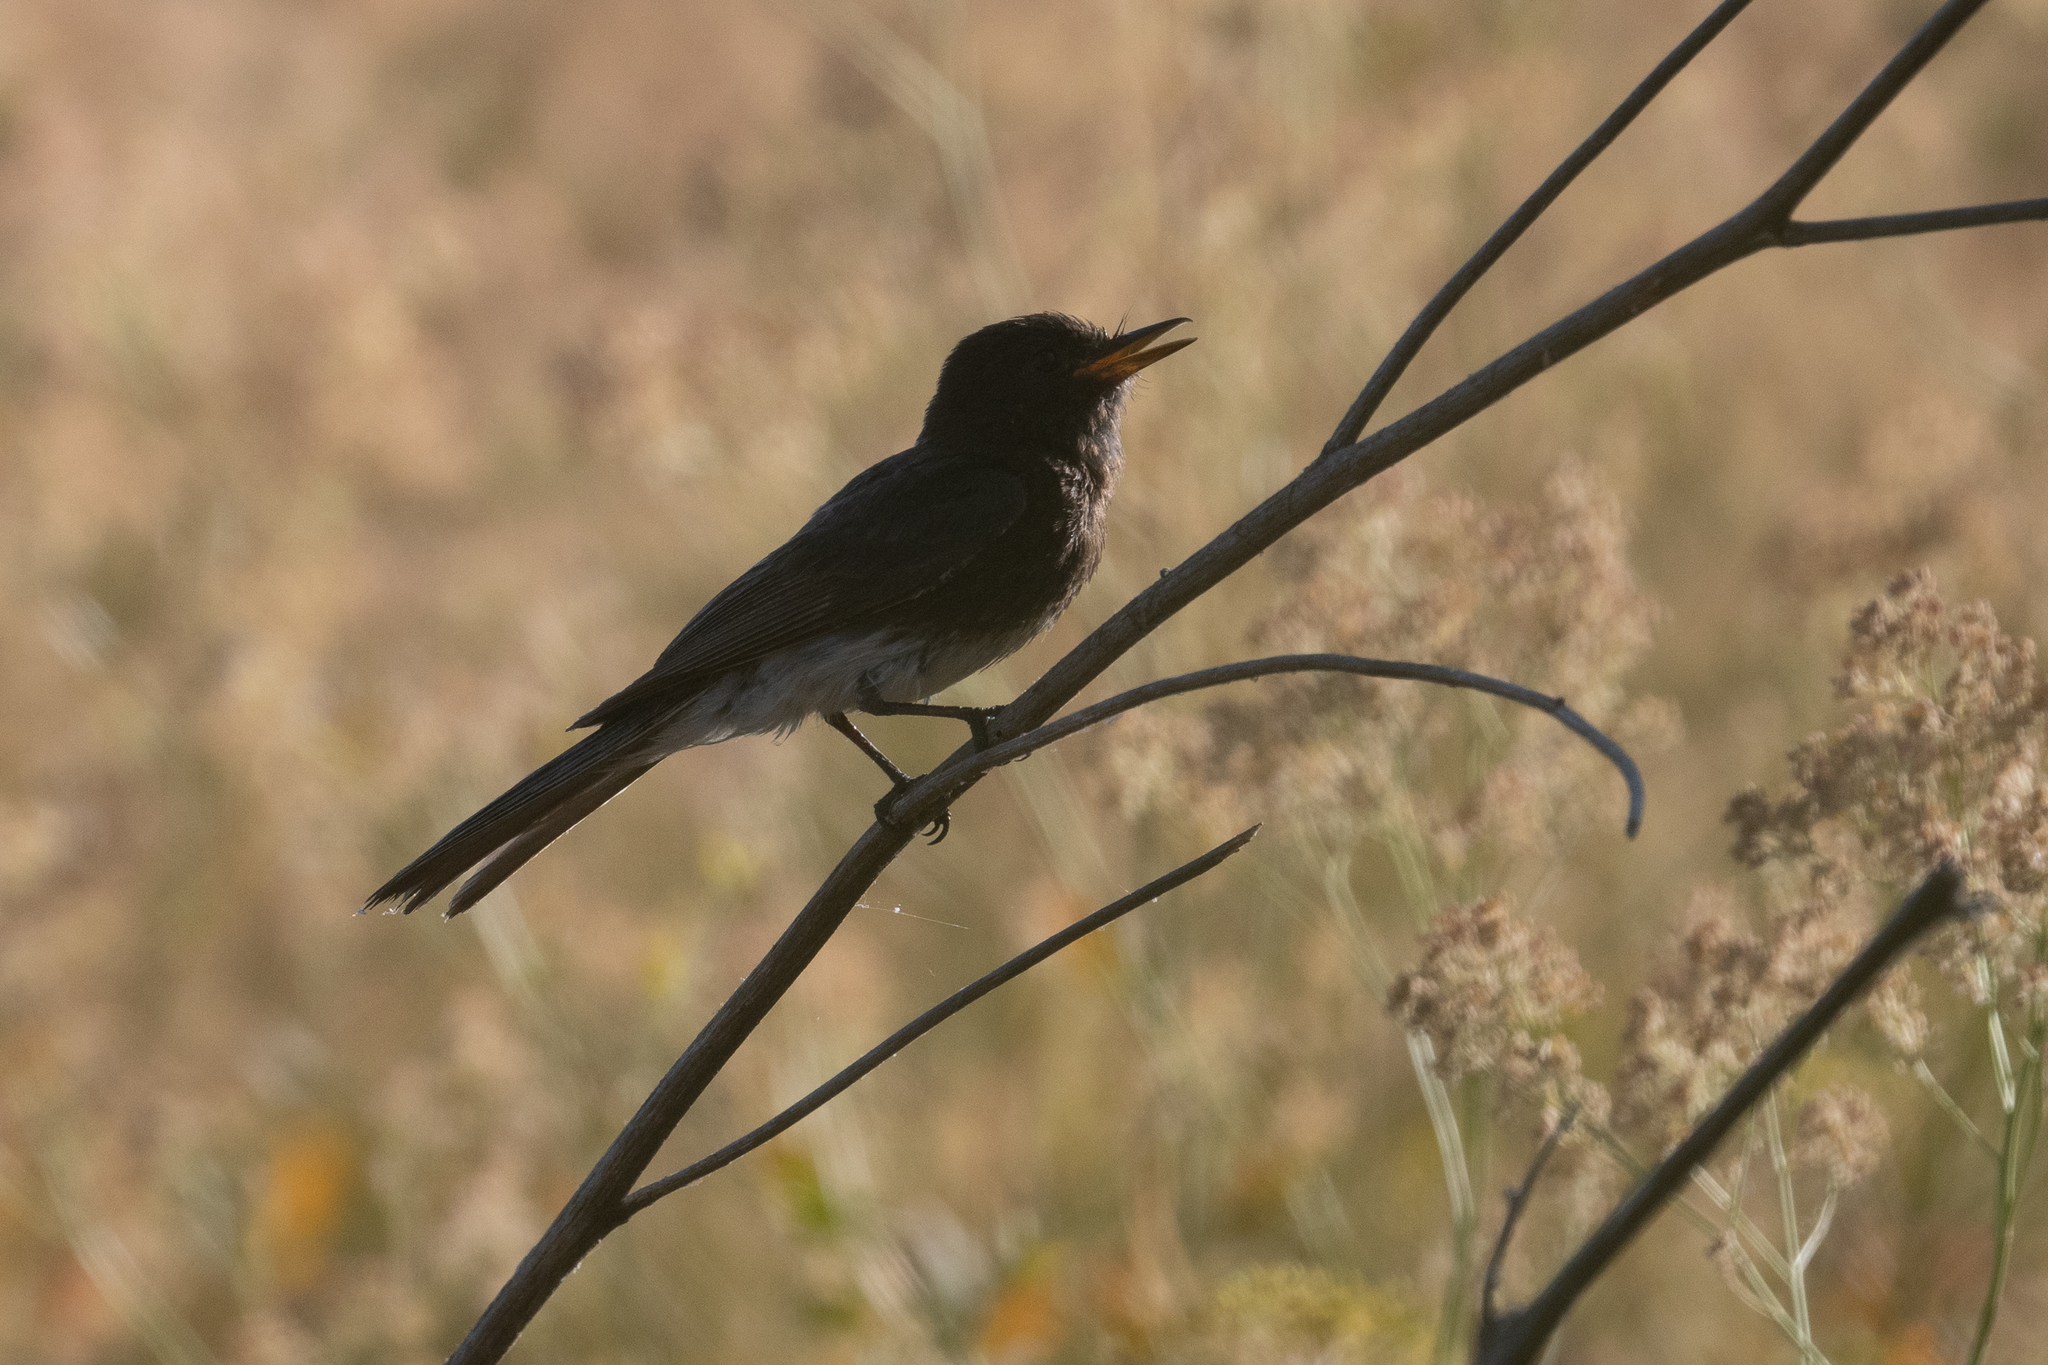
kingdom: Animalia
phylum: Chordata
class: Aves
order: Passeriformes
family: Tyrannidae
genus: Sayornis
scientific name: Sayornis nigricans
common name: Black phoebe
